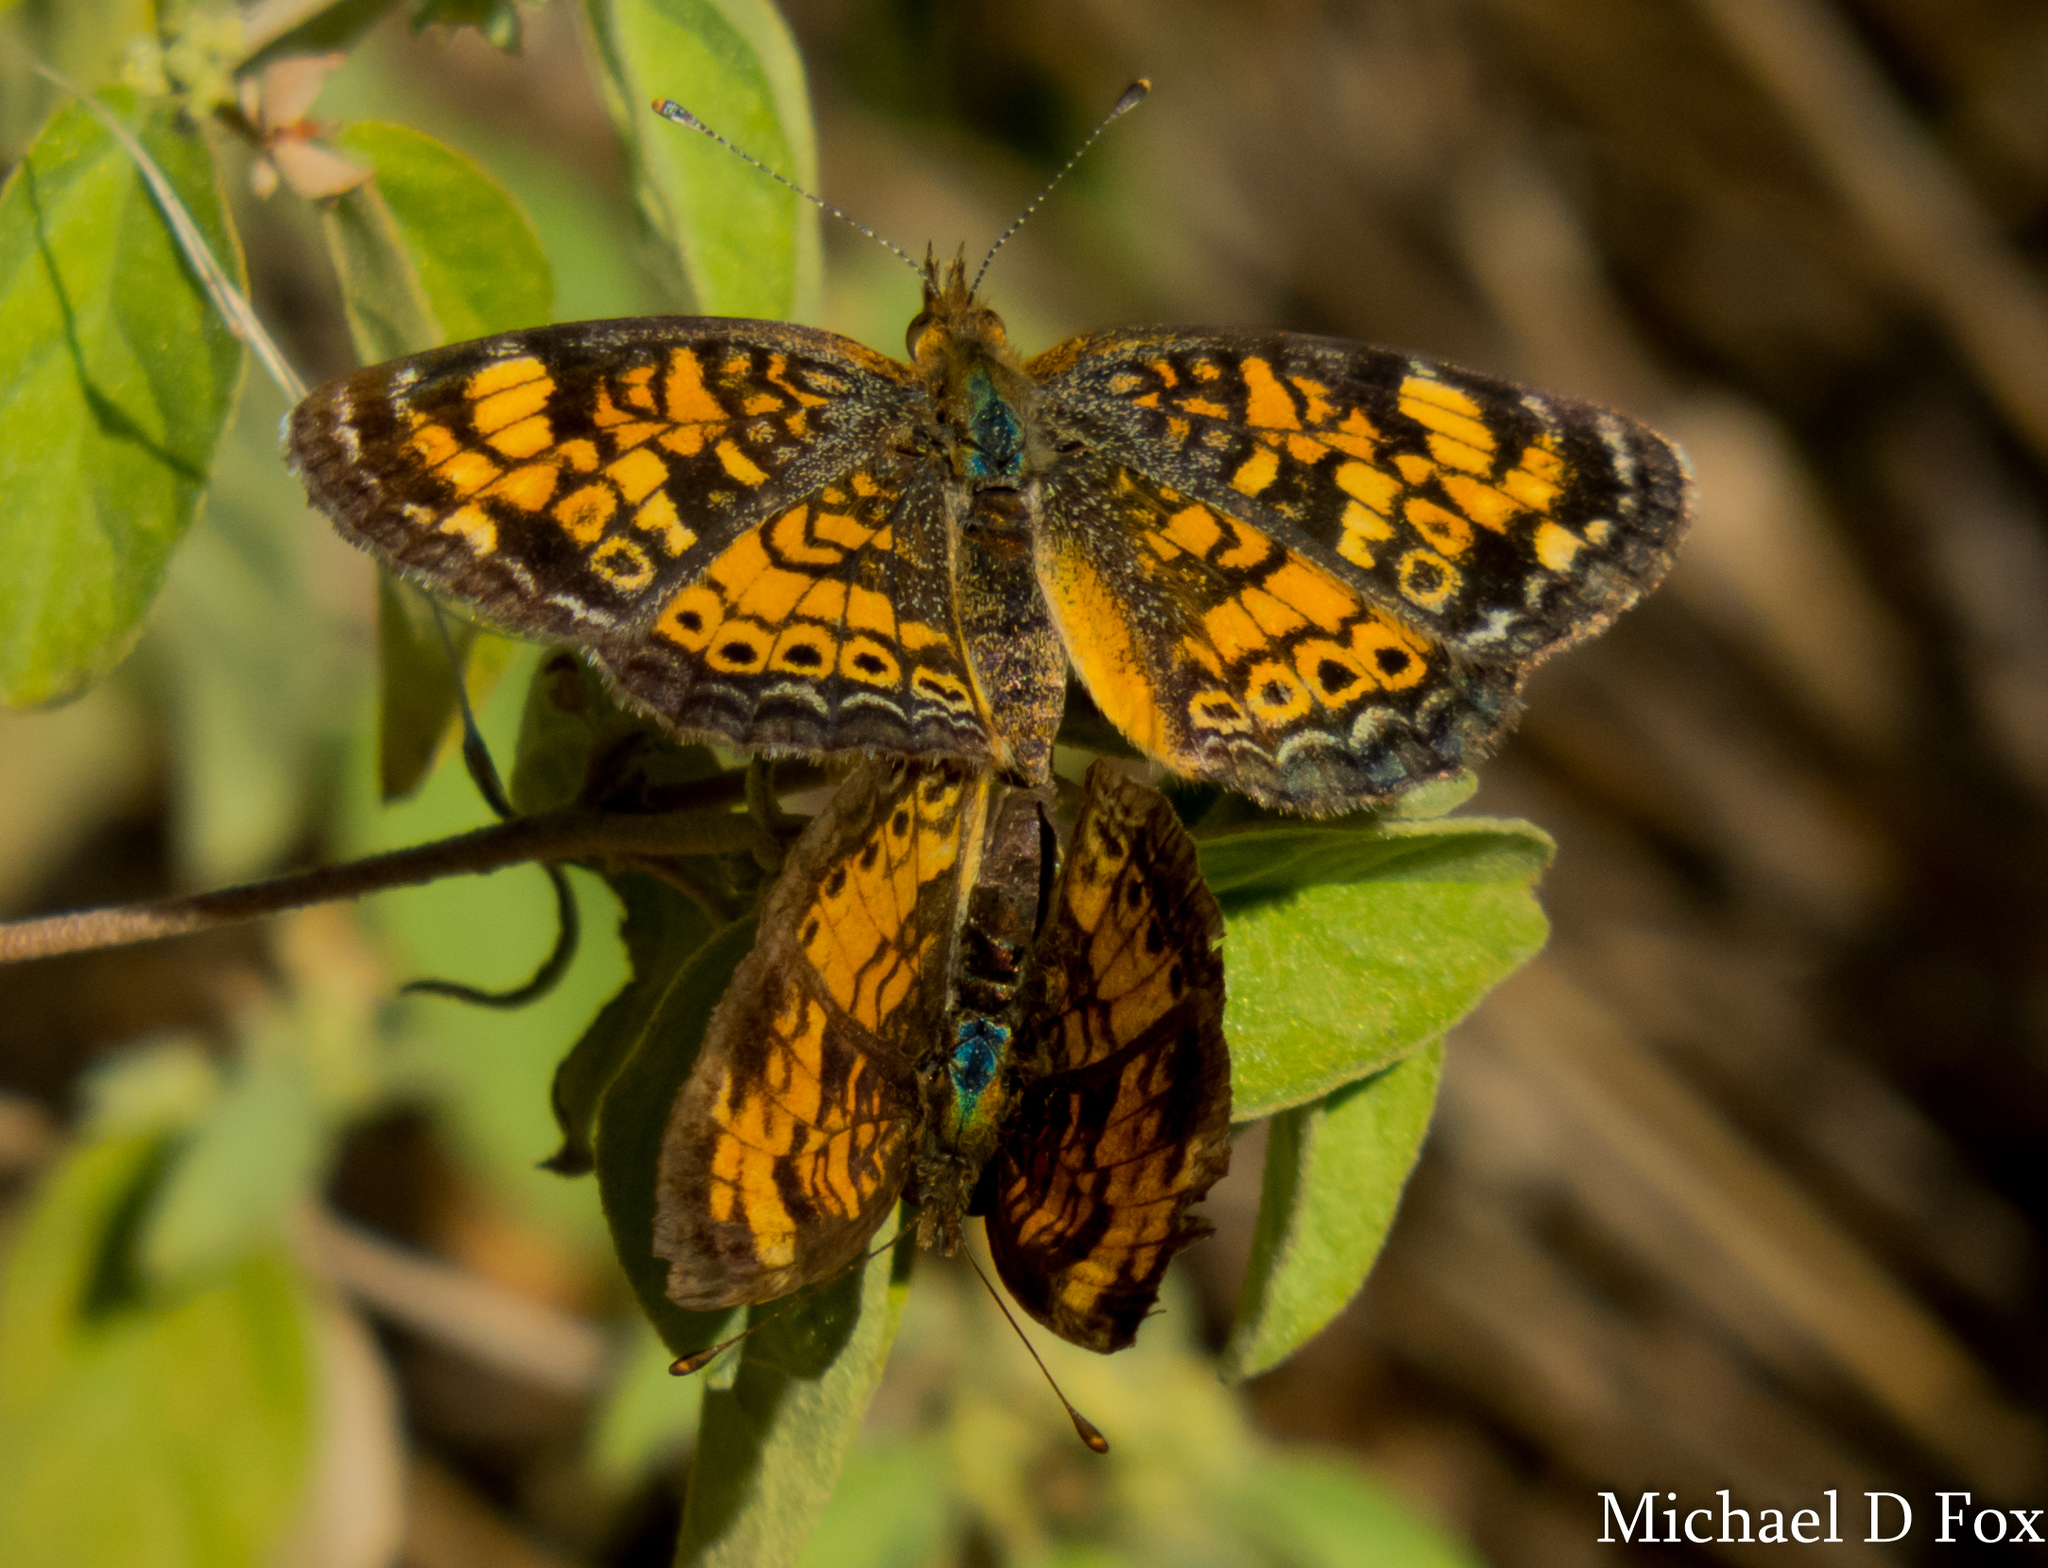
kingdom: Animalia
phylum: Arthropoda
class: Insecta
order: Lepidoptera
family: Nymphalidae
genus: Phyciodes
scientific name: Phyciodes tharos
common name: Pearl crescent
